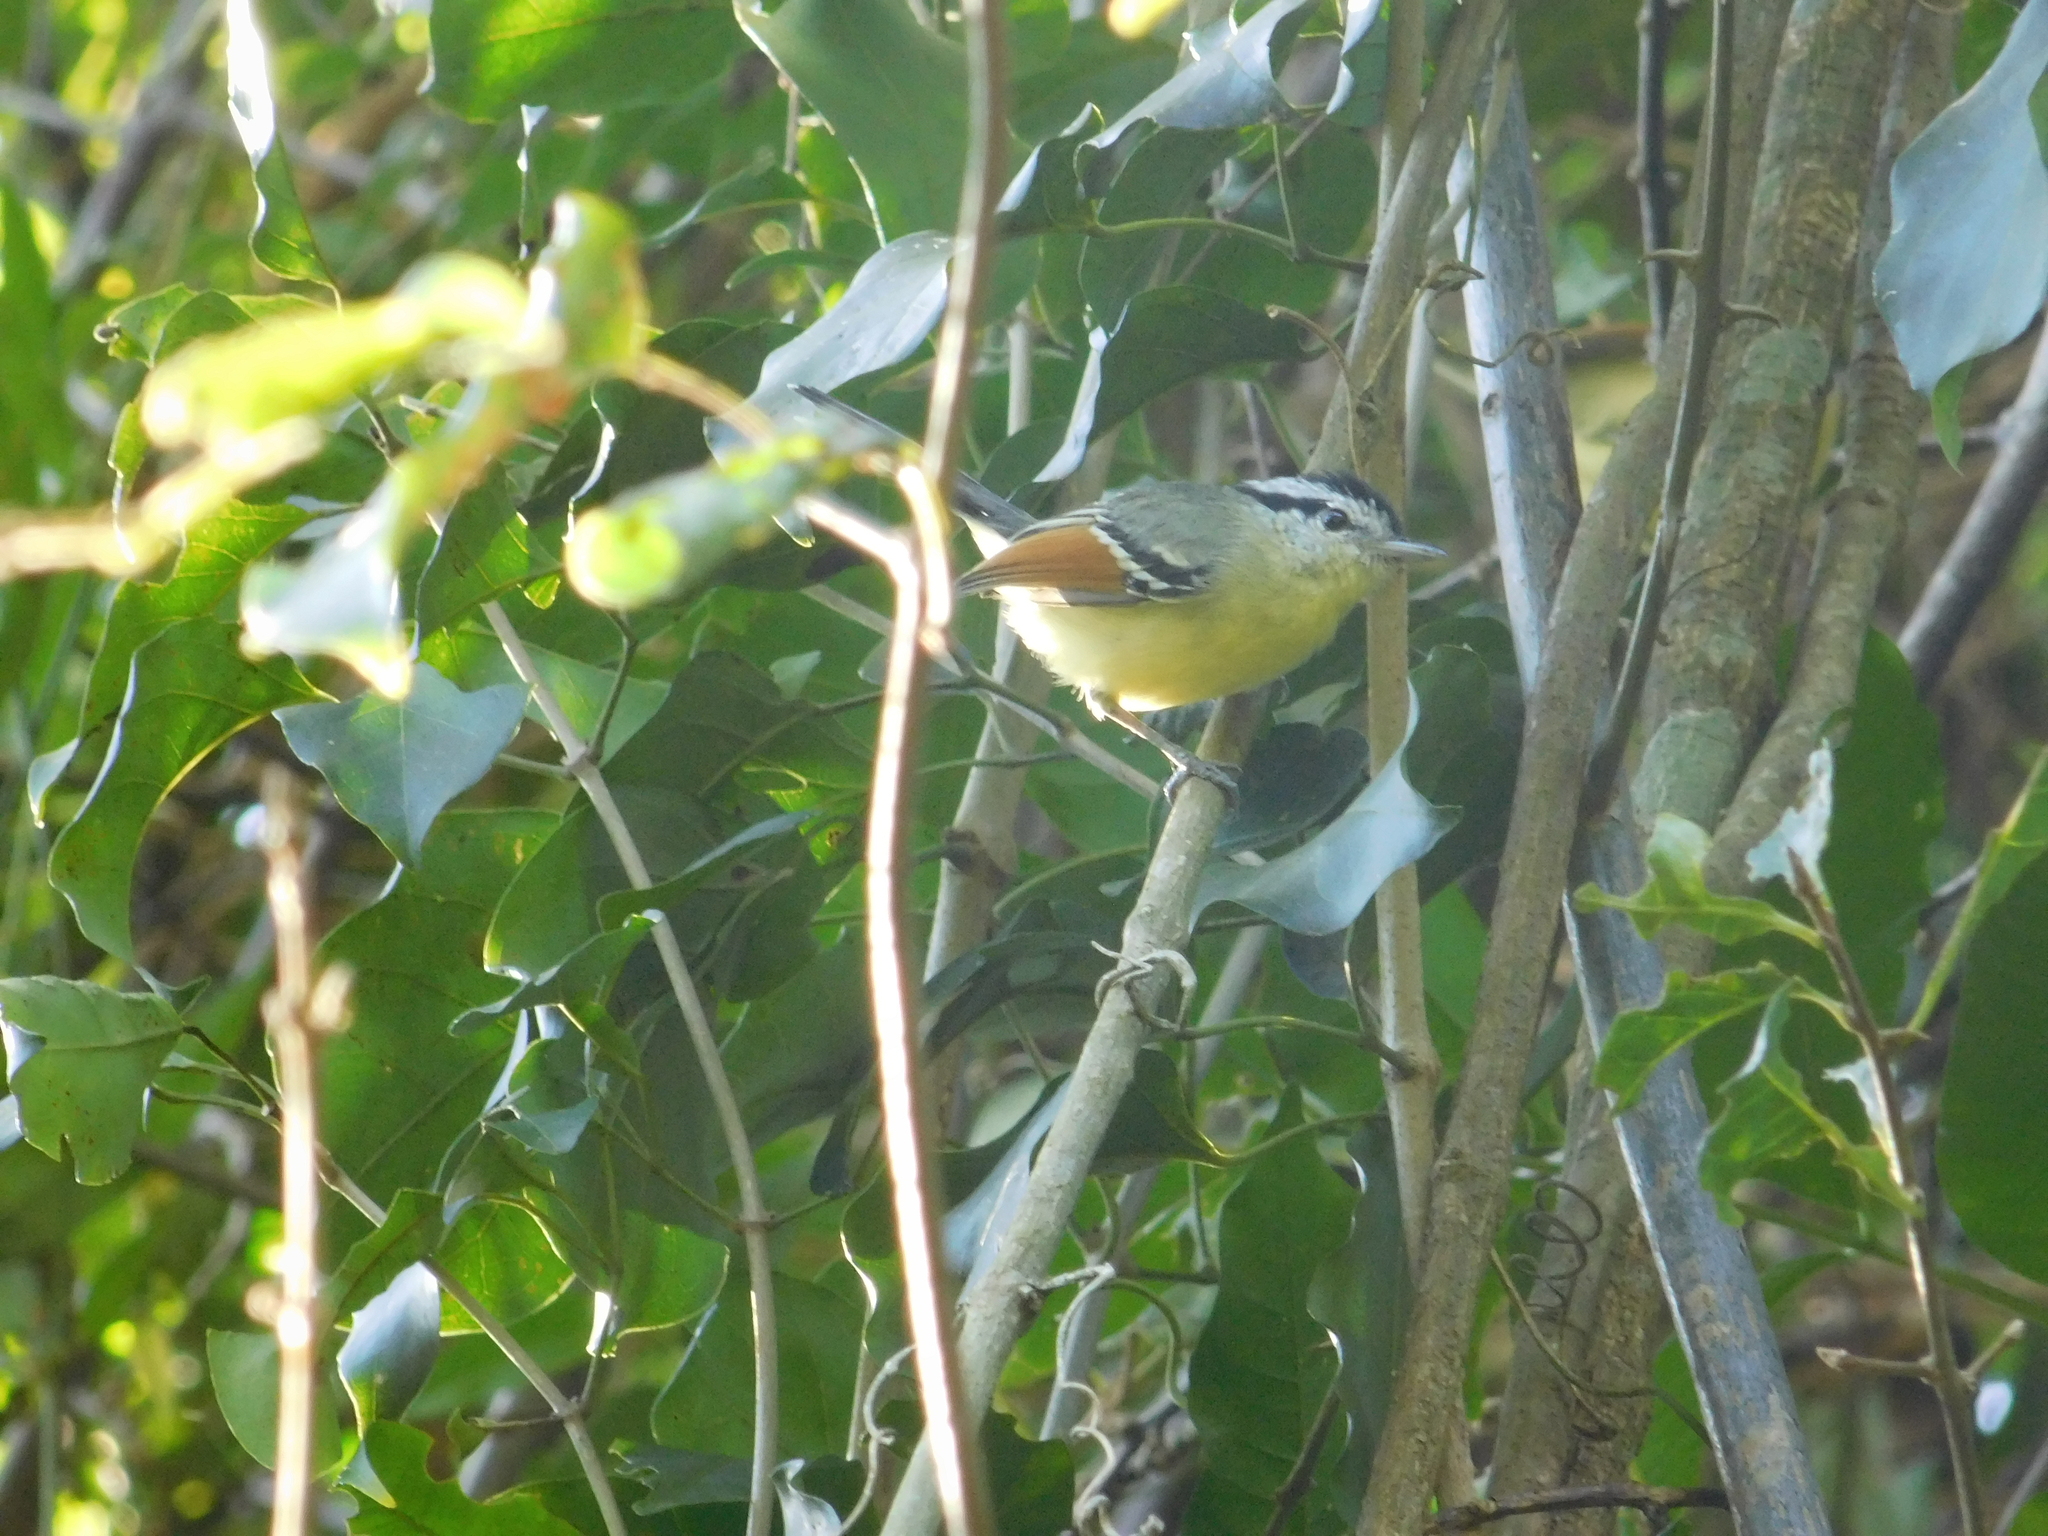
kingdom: Animalia
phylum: Chordata
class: Aves
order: Passeriformes
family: Thamnophilidae
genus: Herpsilochmus
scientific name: Herpsilochmus rufimarginatus
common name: Rufous-winged antwren
